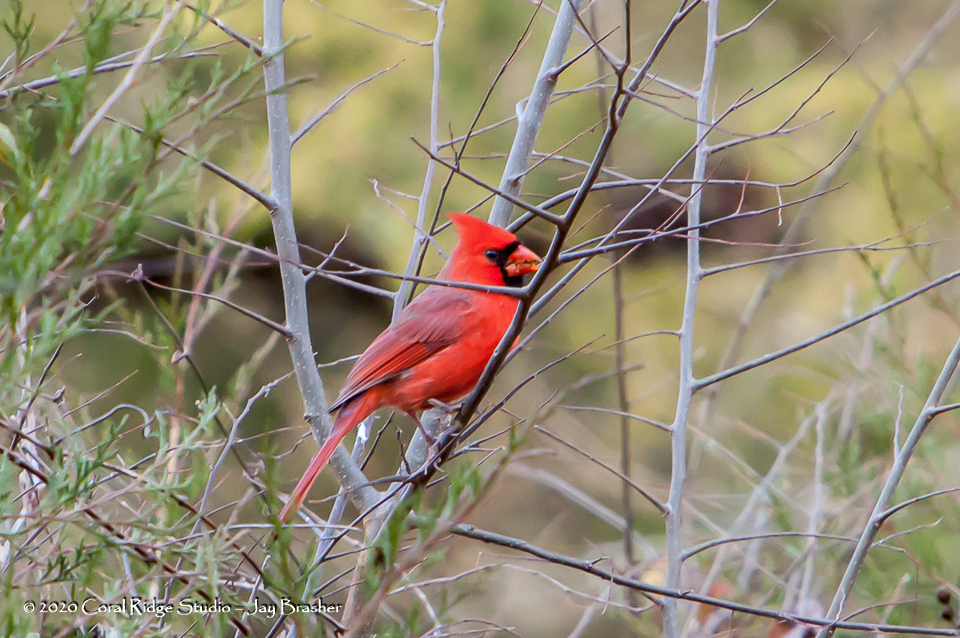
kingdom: Animalia
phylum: Chordata
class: Aves
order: Passeriformes
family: Cardinalidae
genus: Cardinalis
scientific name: Cardinalis cardinalis
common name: Northern cardinal
